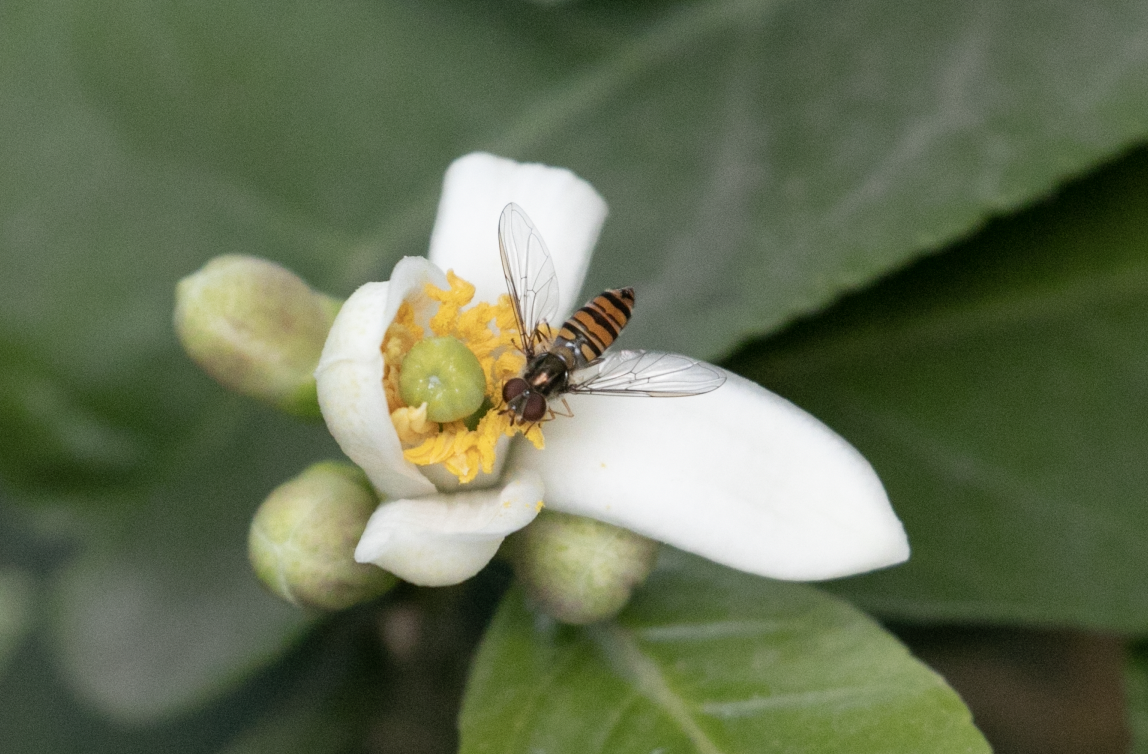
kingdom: Animalia
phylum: Arthropoda
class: Insecta
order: Diptera
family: Syrphidae
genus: Episyrphus
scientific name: Episyrphus balteatus
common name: Marmalade hoverfly
